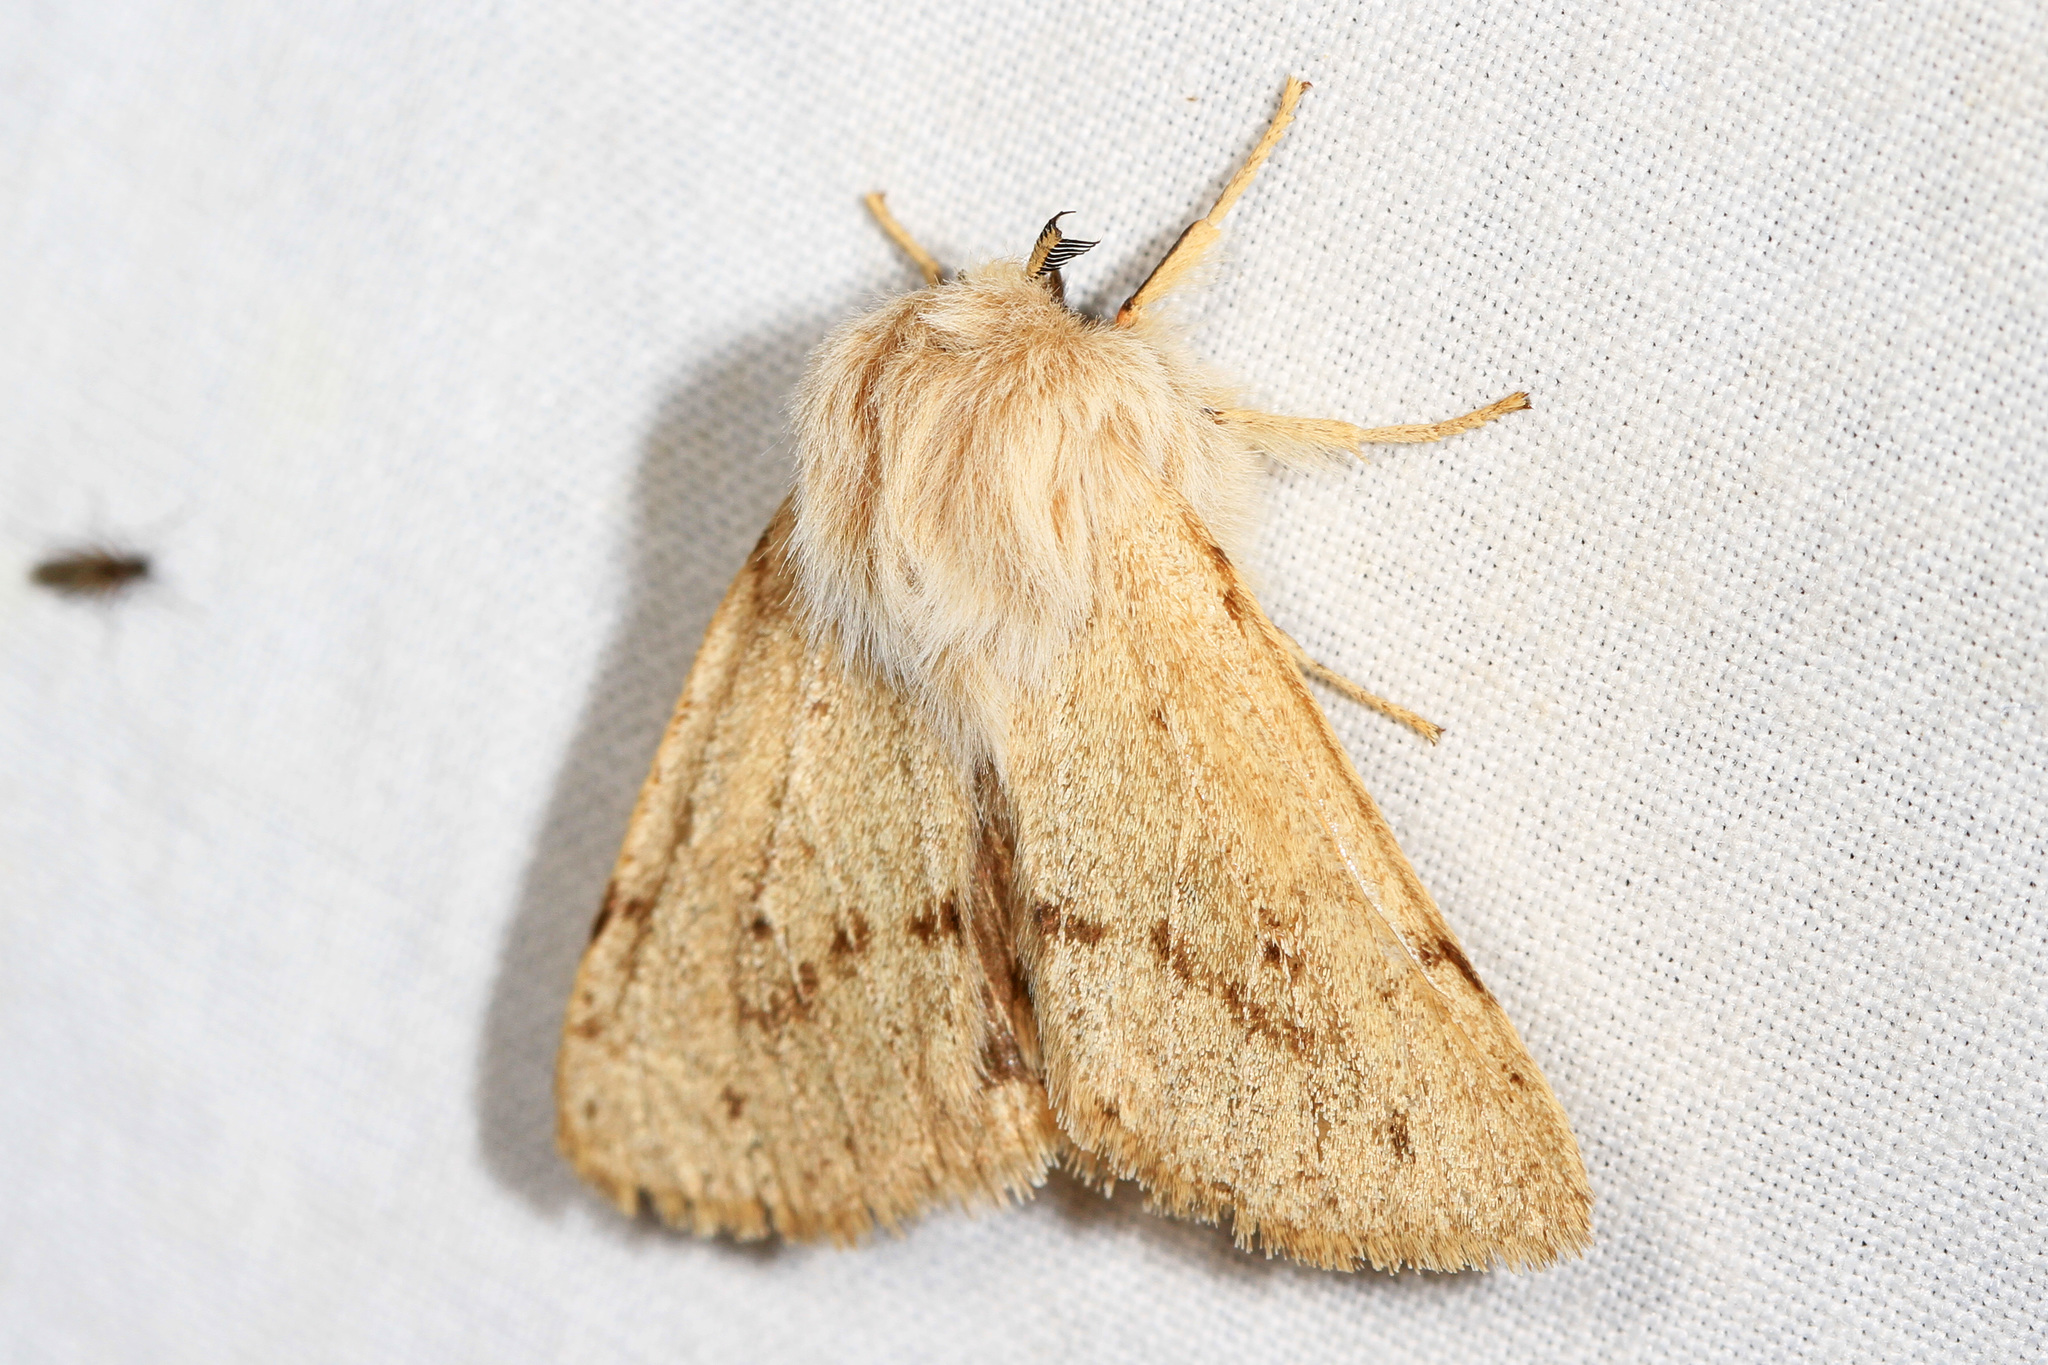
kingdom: Animalia
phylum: Arthropoda
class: Insecta
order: Lepidoptera
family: Erebidae
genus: Spilosoma
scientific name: Spilosoma vagans
